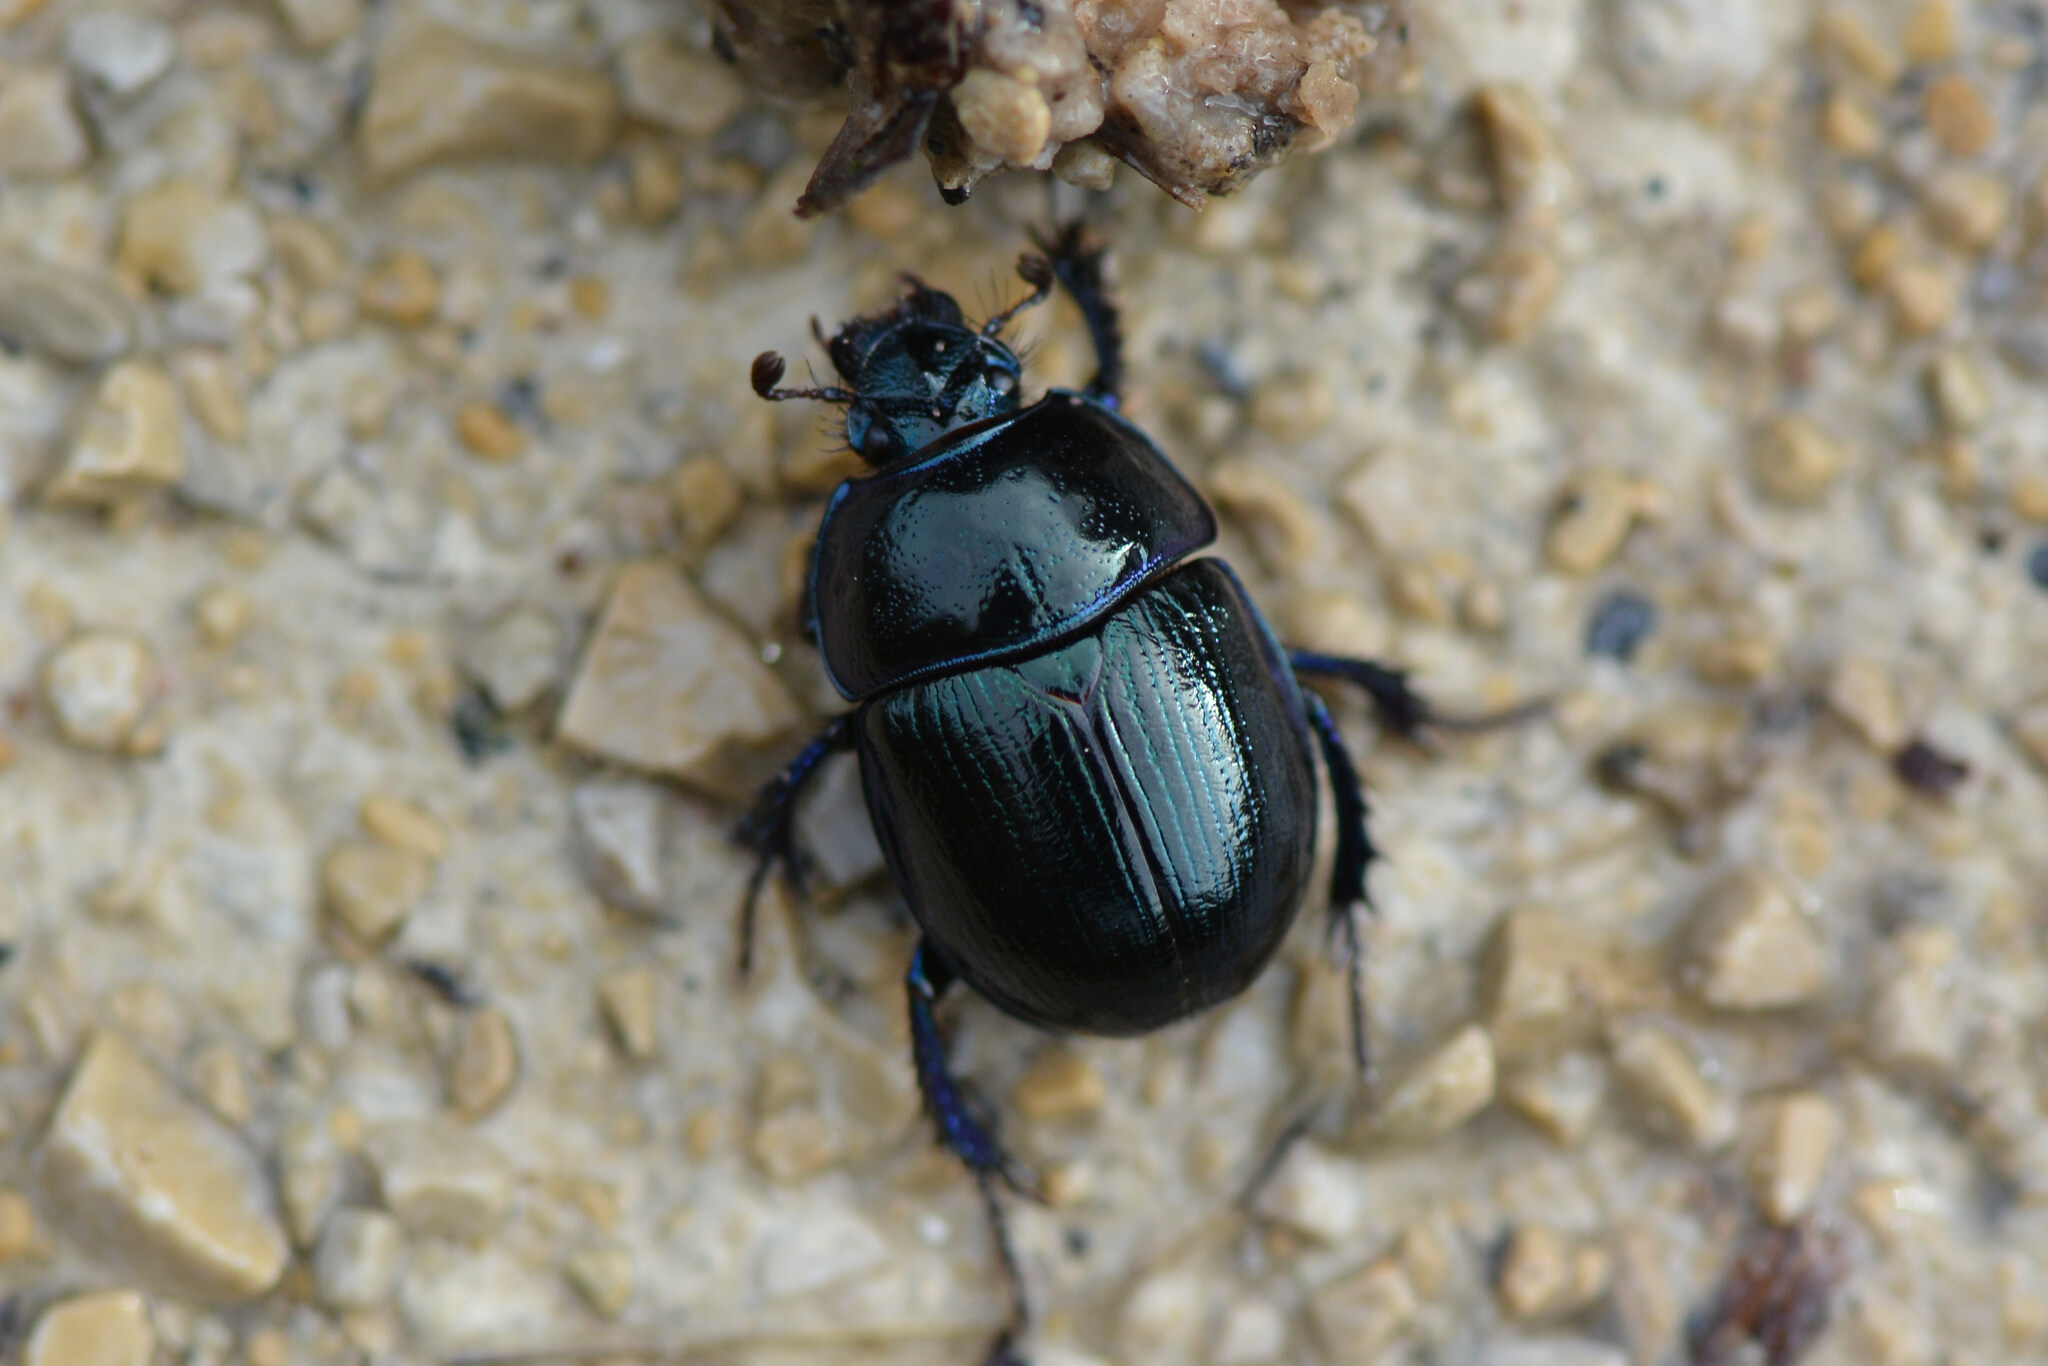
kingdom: Animalia
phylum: Arthropoda
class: Insecta
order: Coleoptera
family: Geotrupidae
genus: Anoplotrupes
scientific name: Anoplotrupes stercorosus
